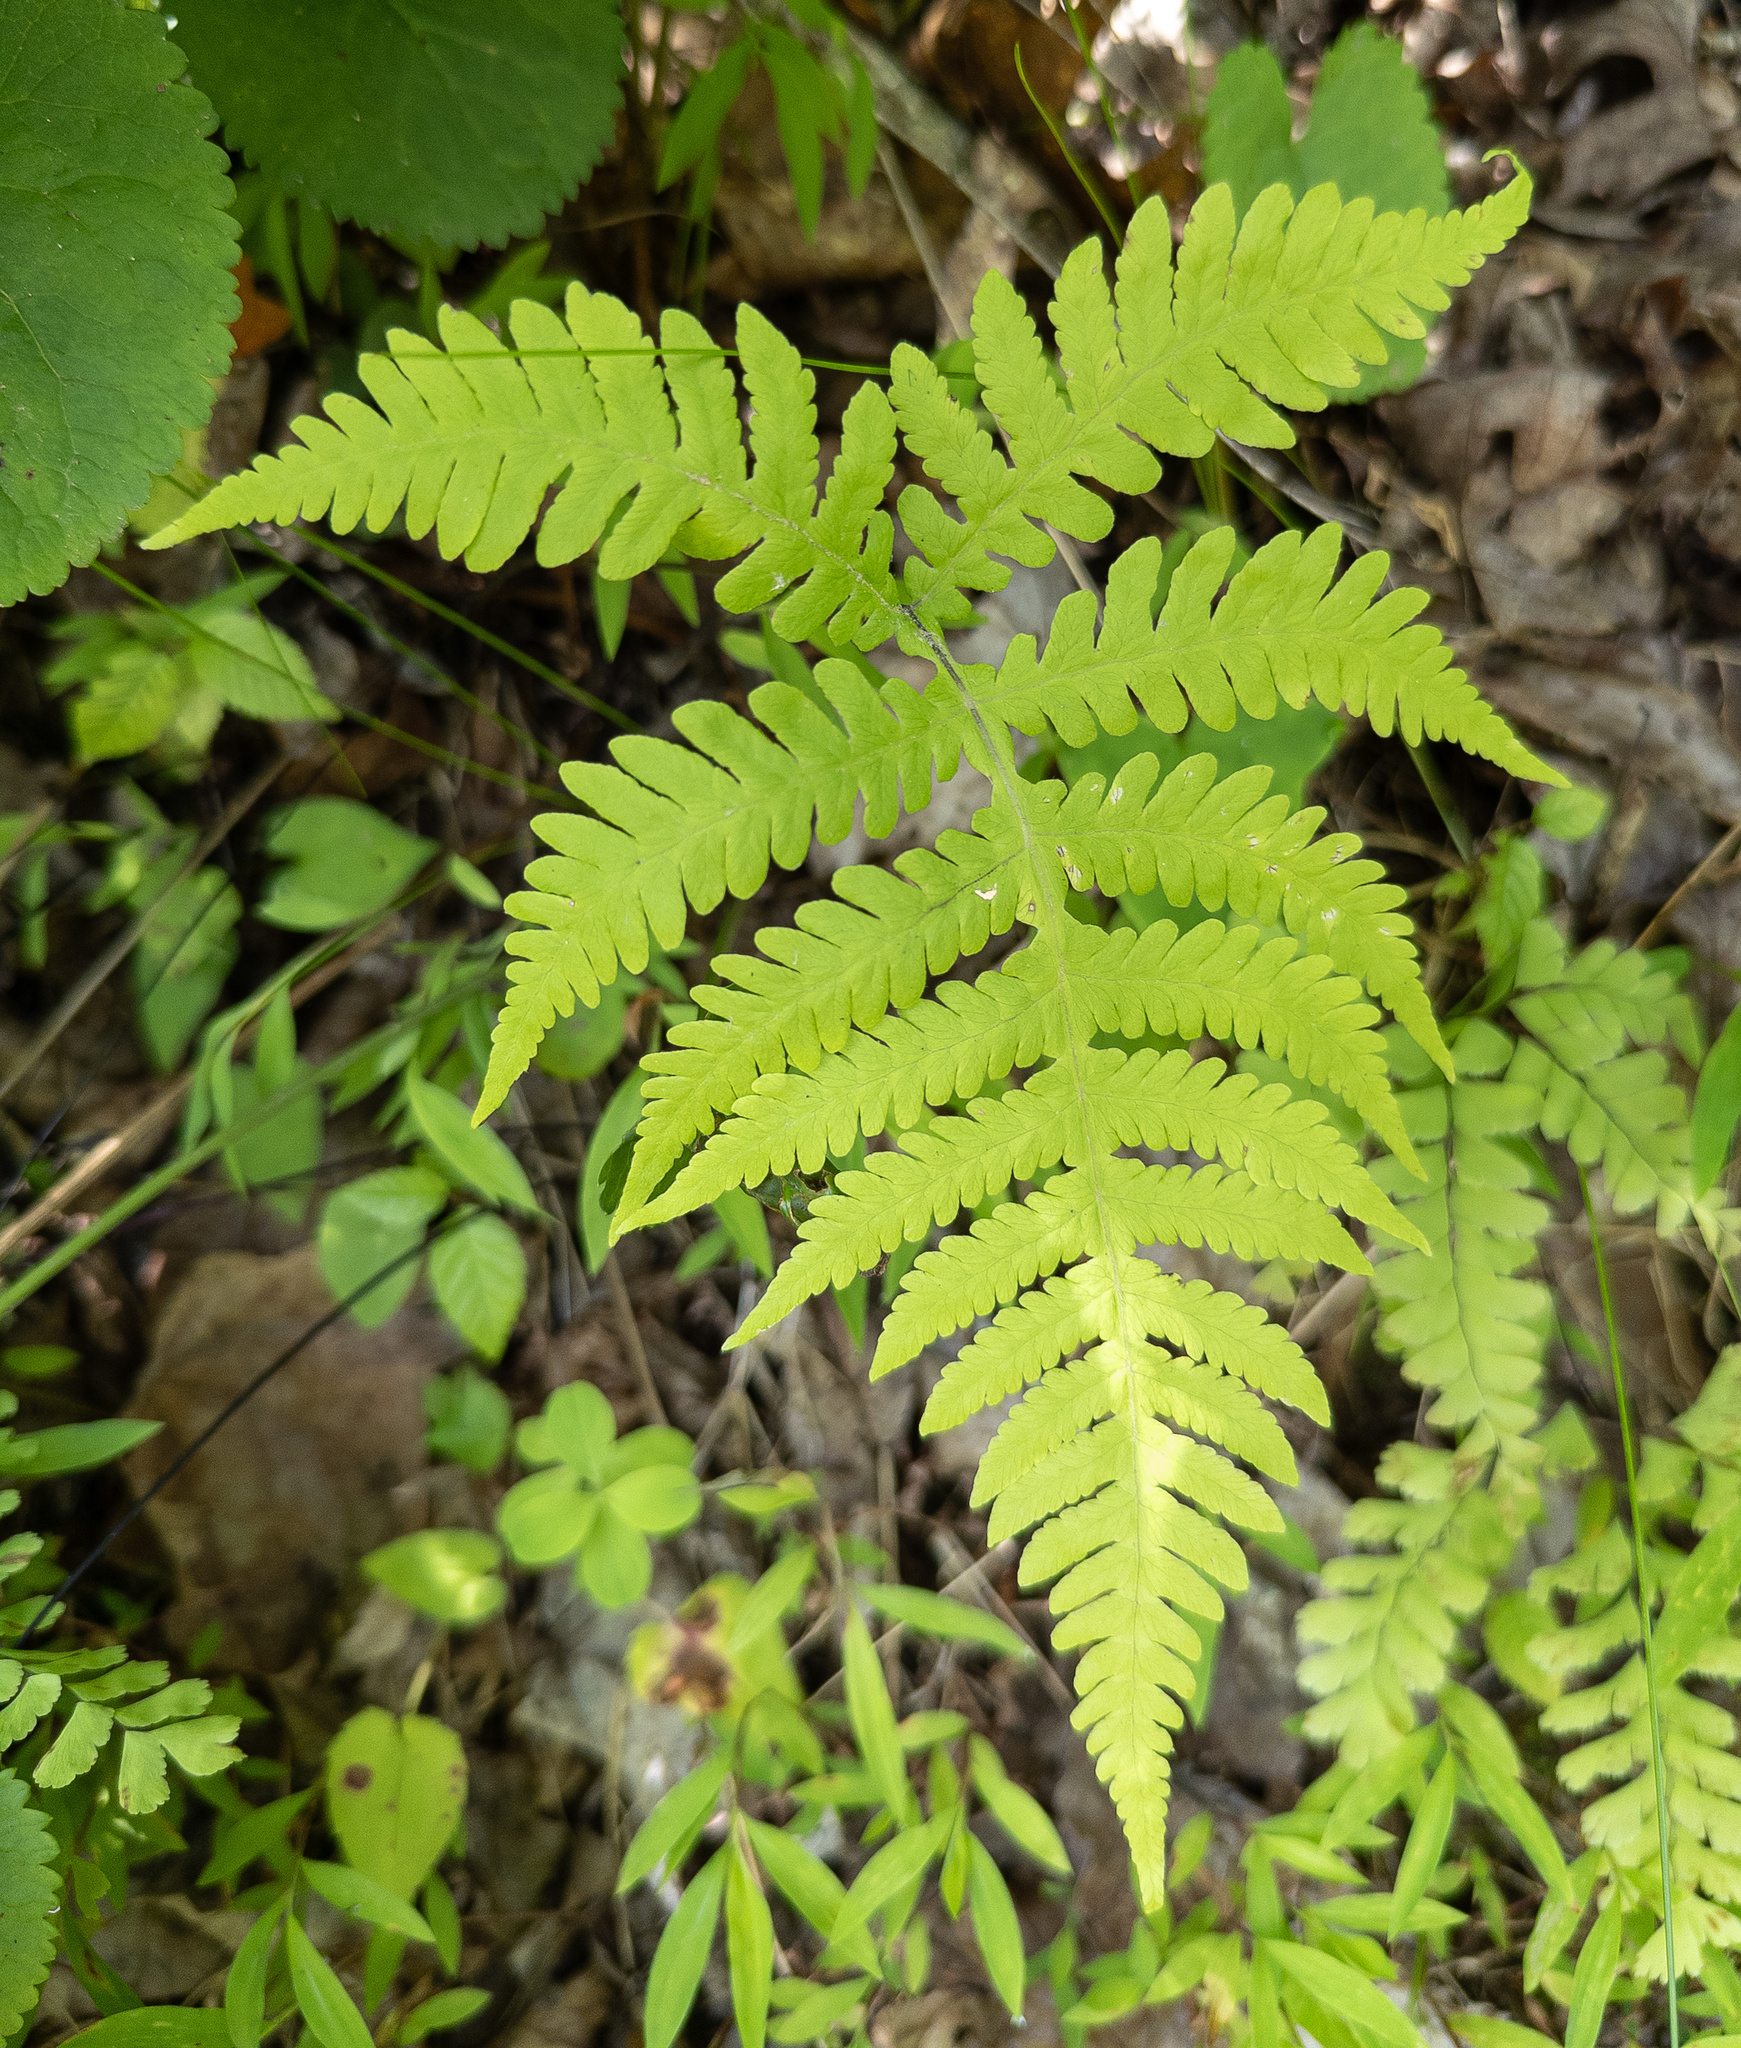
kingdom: Plantae
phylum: Tracheophyta
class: Polypodiopsida
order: Polypodiales
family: Thelypteridaceae
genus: Phegopteris
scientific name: Phegopteris hexagonoptera
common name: Broad beech fern
